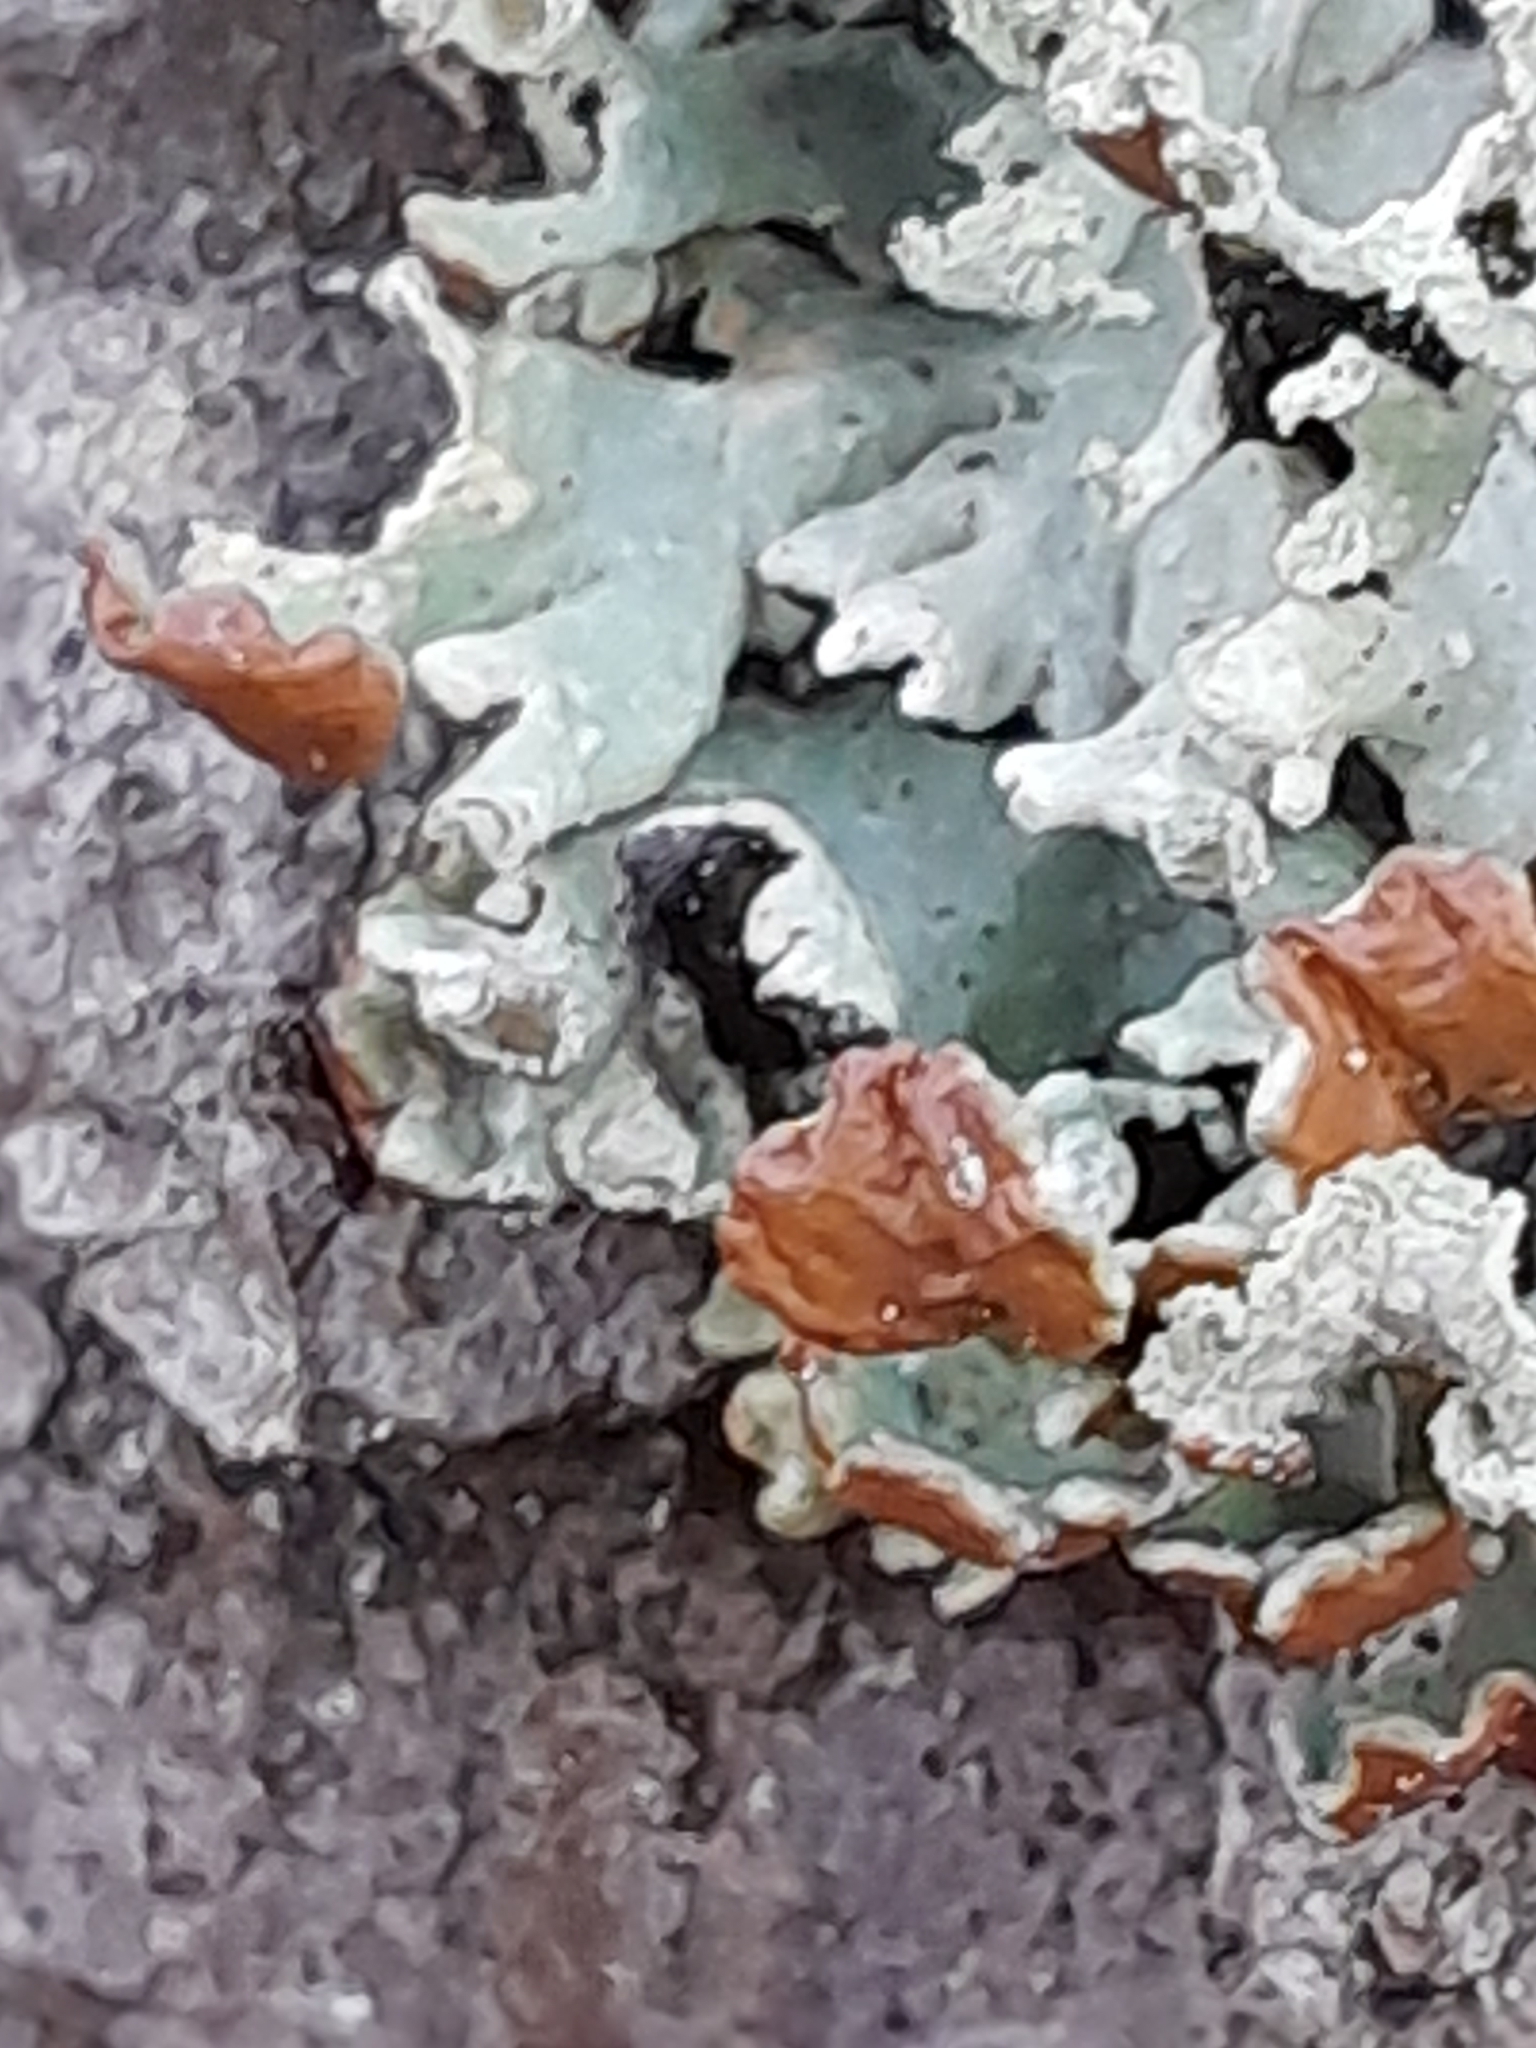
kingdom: Fungi
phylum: Ascomycota
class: Lecanoromycetes
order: Lecanorales
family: Parmeliaceae
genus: Hypogymnia
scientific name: Hypogymnia physodes
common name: Dark crottle
